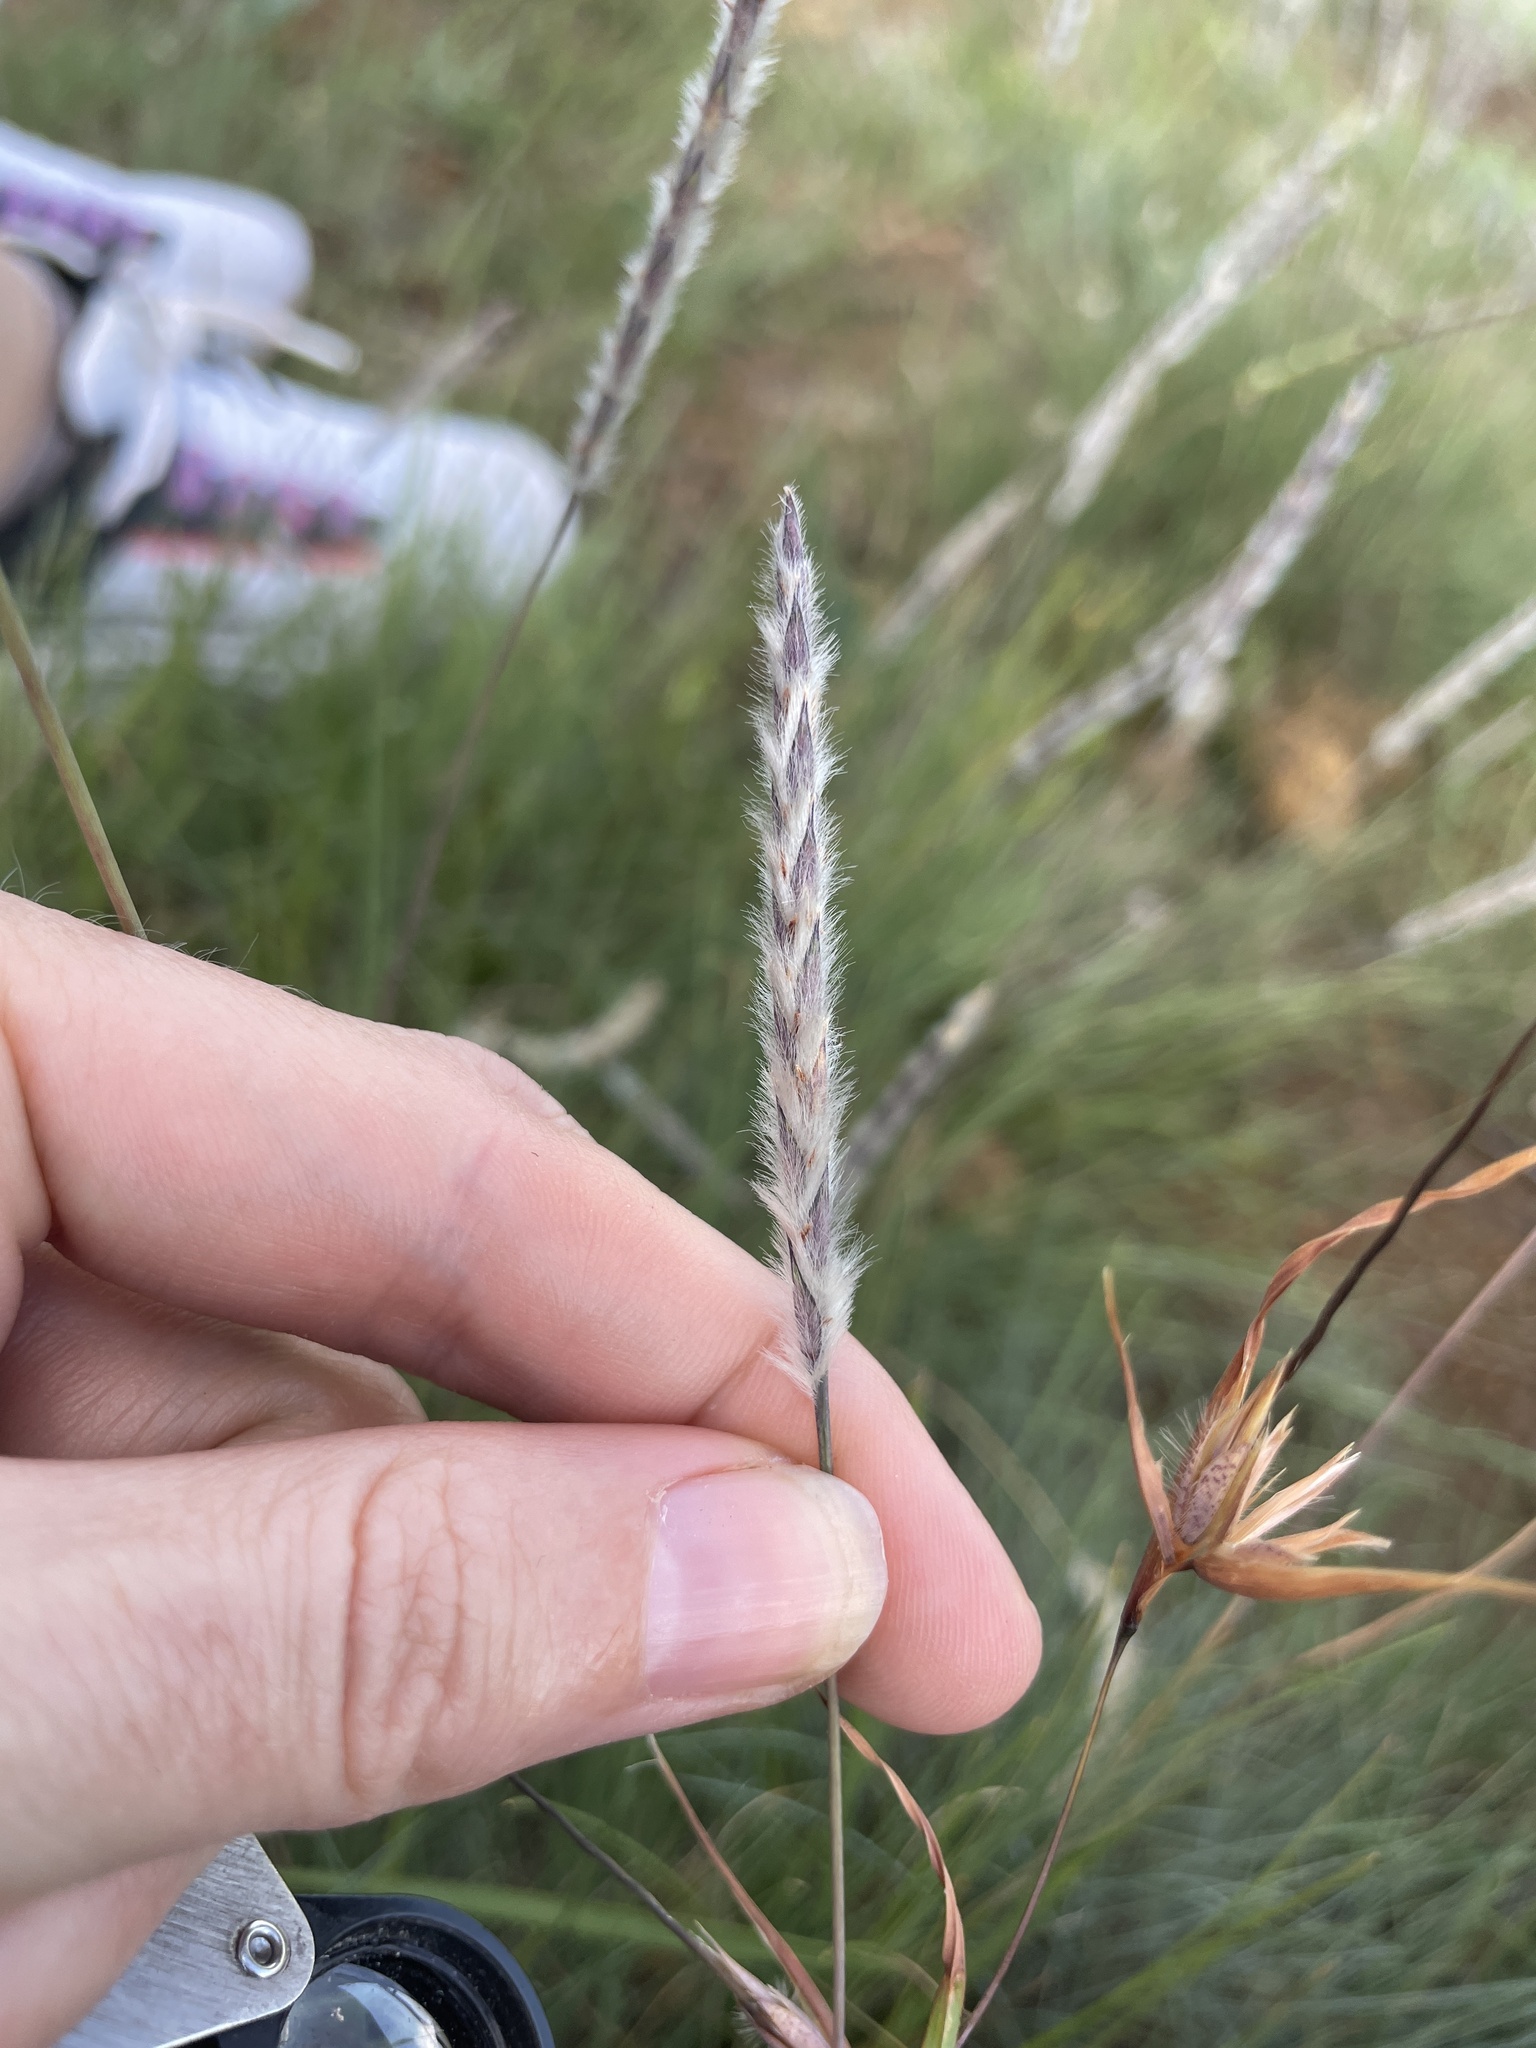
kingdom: Plantae
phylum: Tracheophyta
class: Liliopsida
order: Poales
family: Poaceae
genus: Elionurus
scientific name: Elionurus muticus
